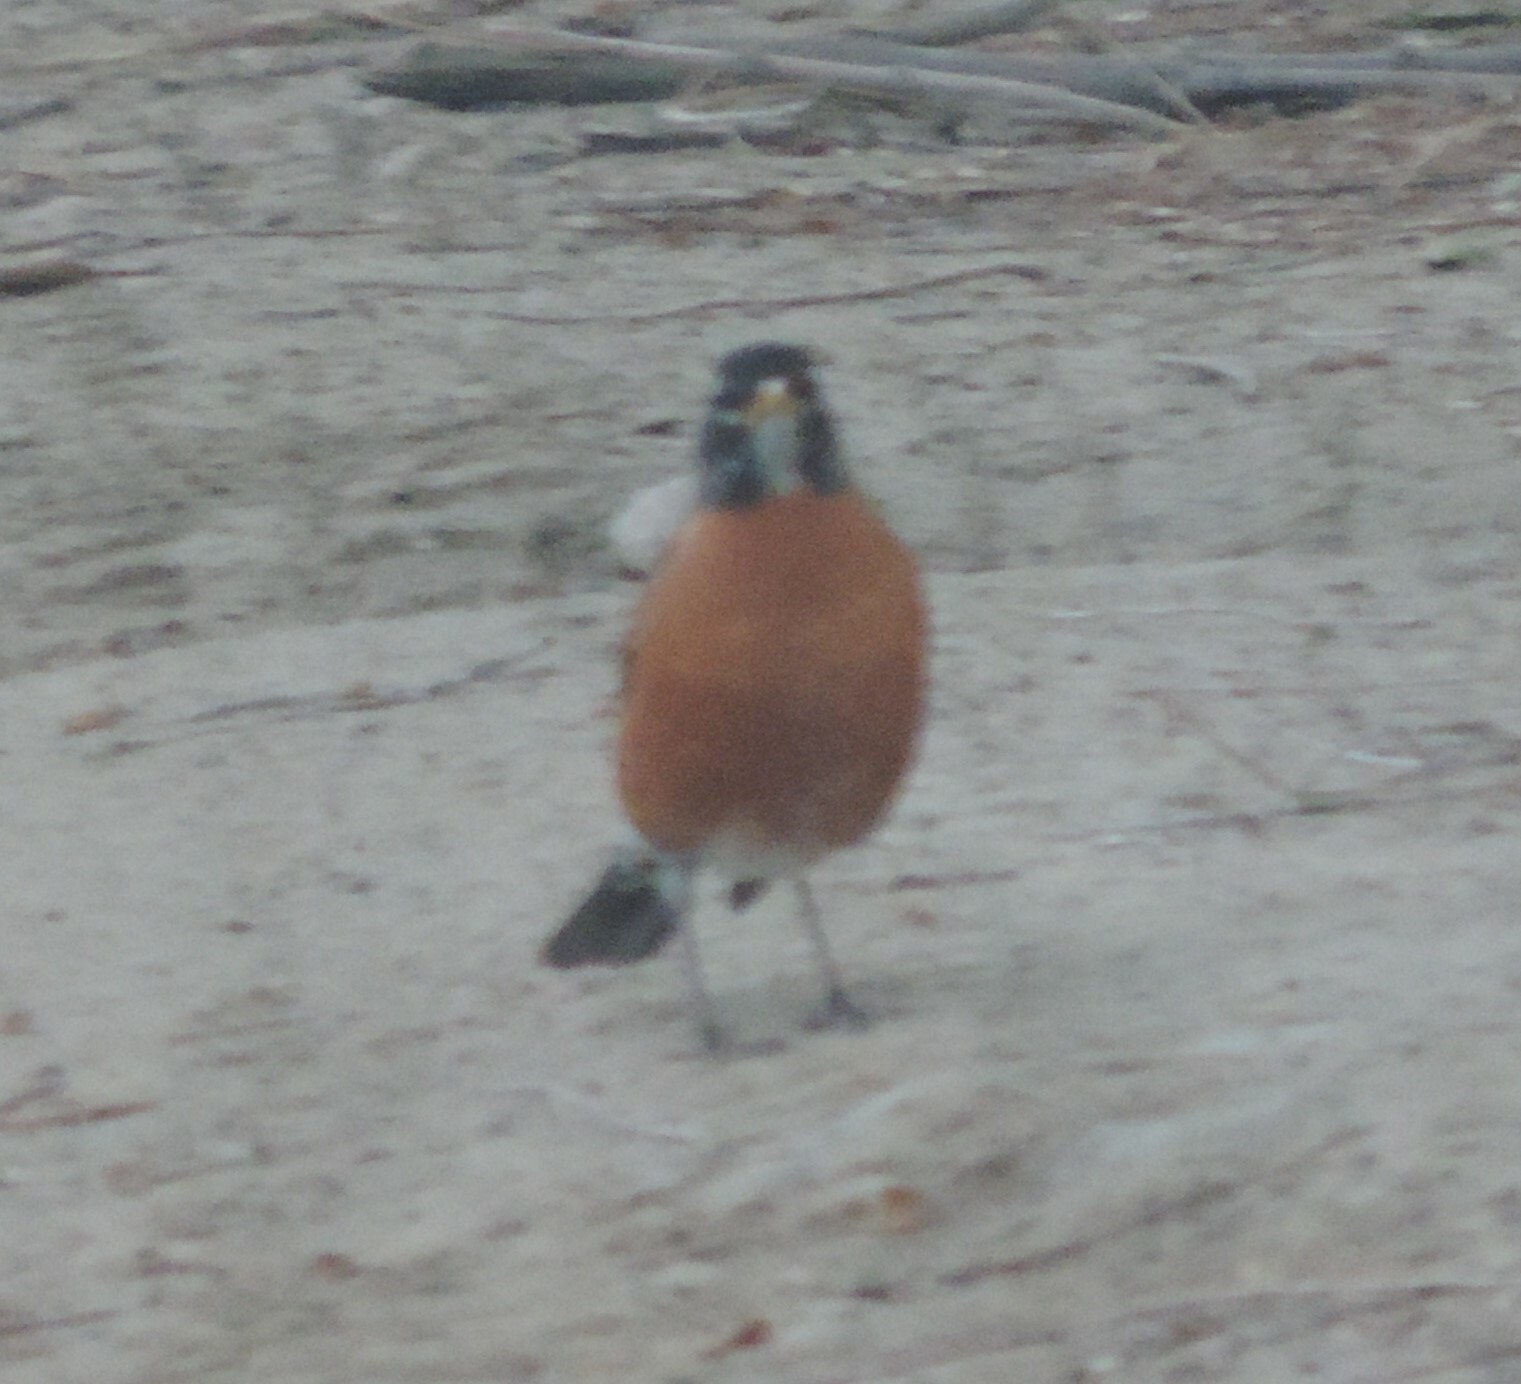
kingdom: Animalia
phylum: Chordata
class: Aves
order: Passeriformes
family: Turdidae
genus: Turdus
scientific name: Turdus migratorius
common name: American robin
